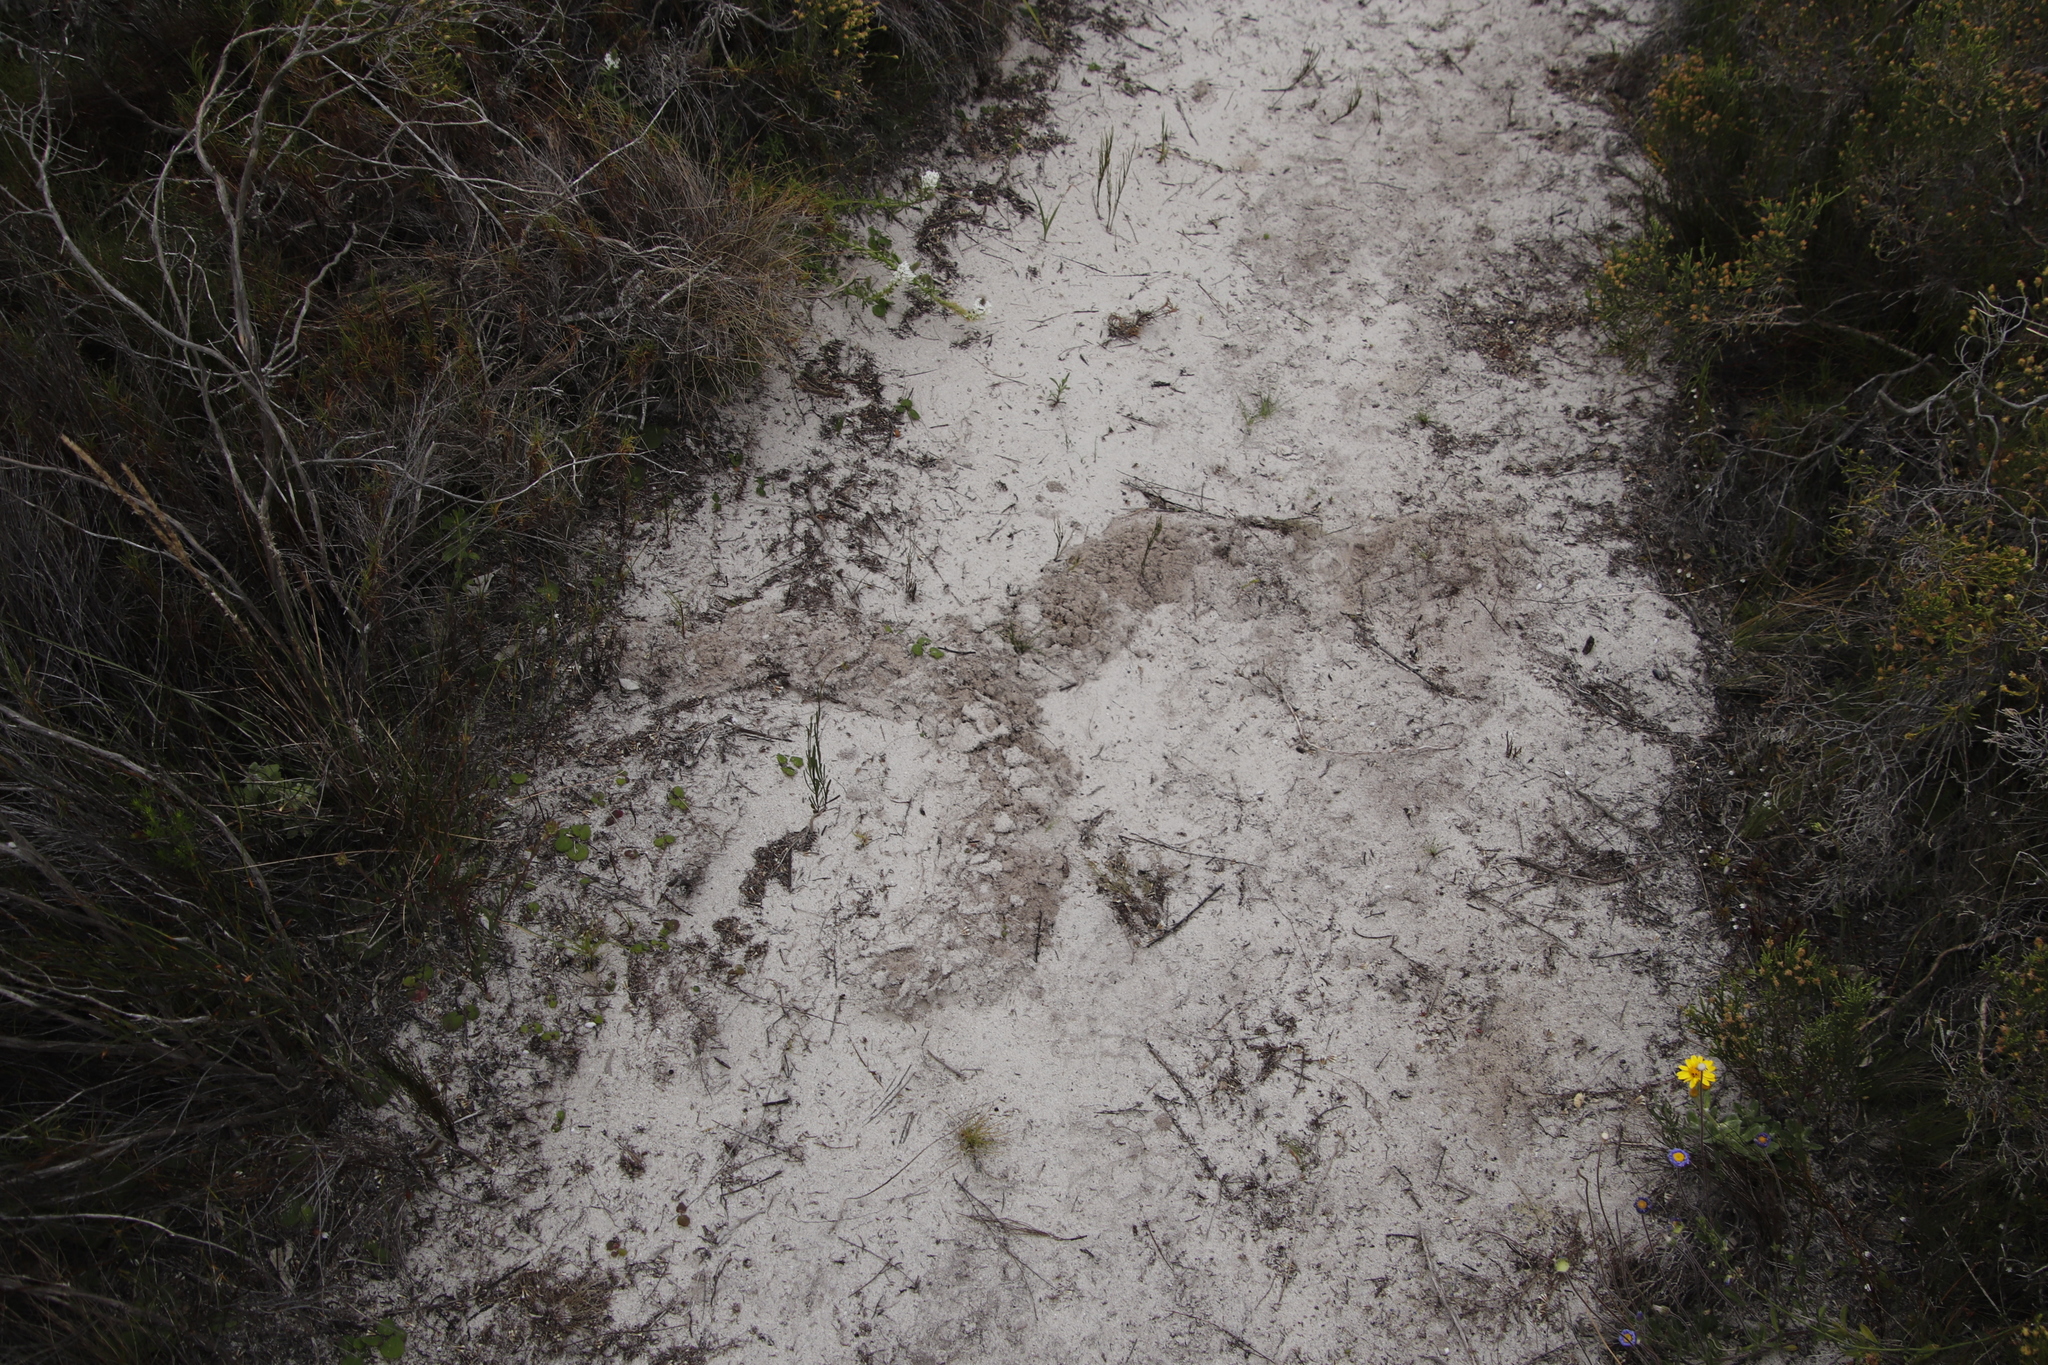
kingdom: Animalia
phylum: Chordata
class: Mammalia
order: Afrosoricida
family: Chrysochloridae
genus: Chrysochloris
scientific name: Chrysochloris asiatica
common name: Cape golden mole
